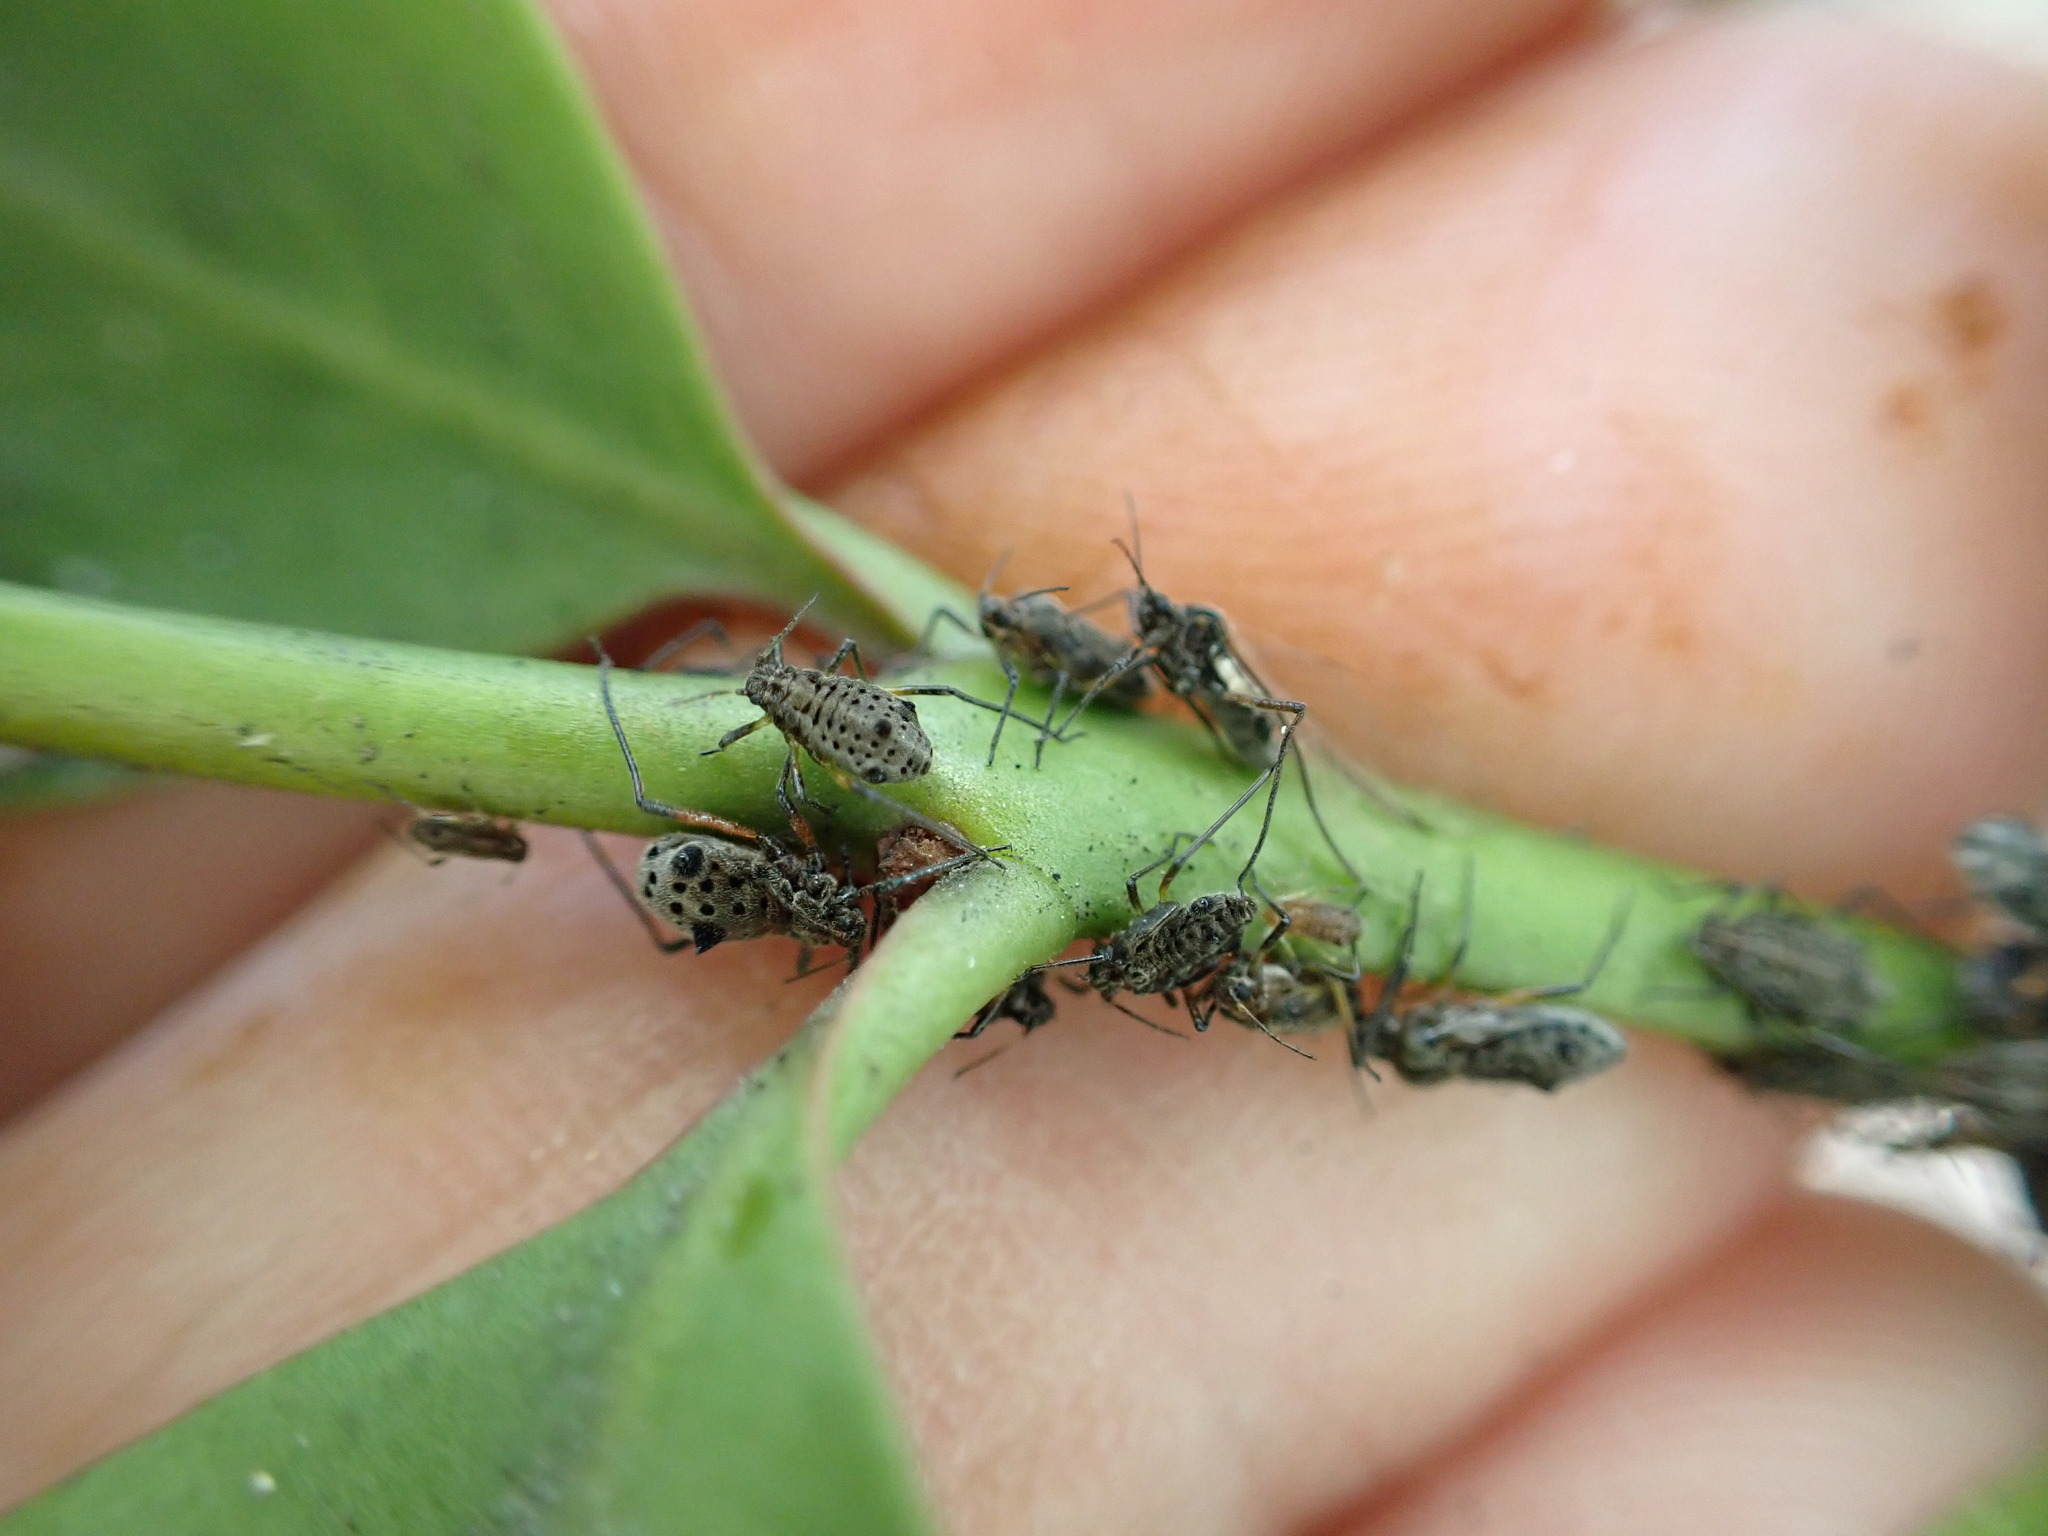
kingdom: Animalia
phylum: Arthropoda
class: Insecta
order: Hemiptera
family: Aphididae
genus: Tuberolachnus
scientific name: Tuberolachnus salignus
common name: Giant willow aphid
